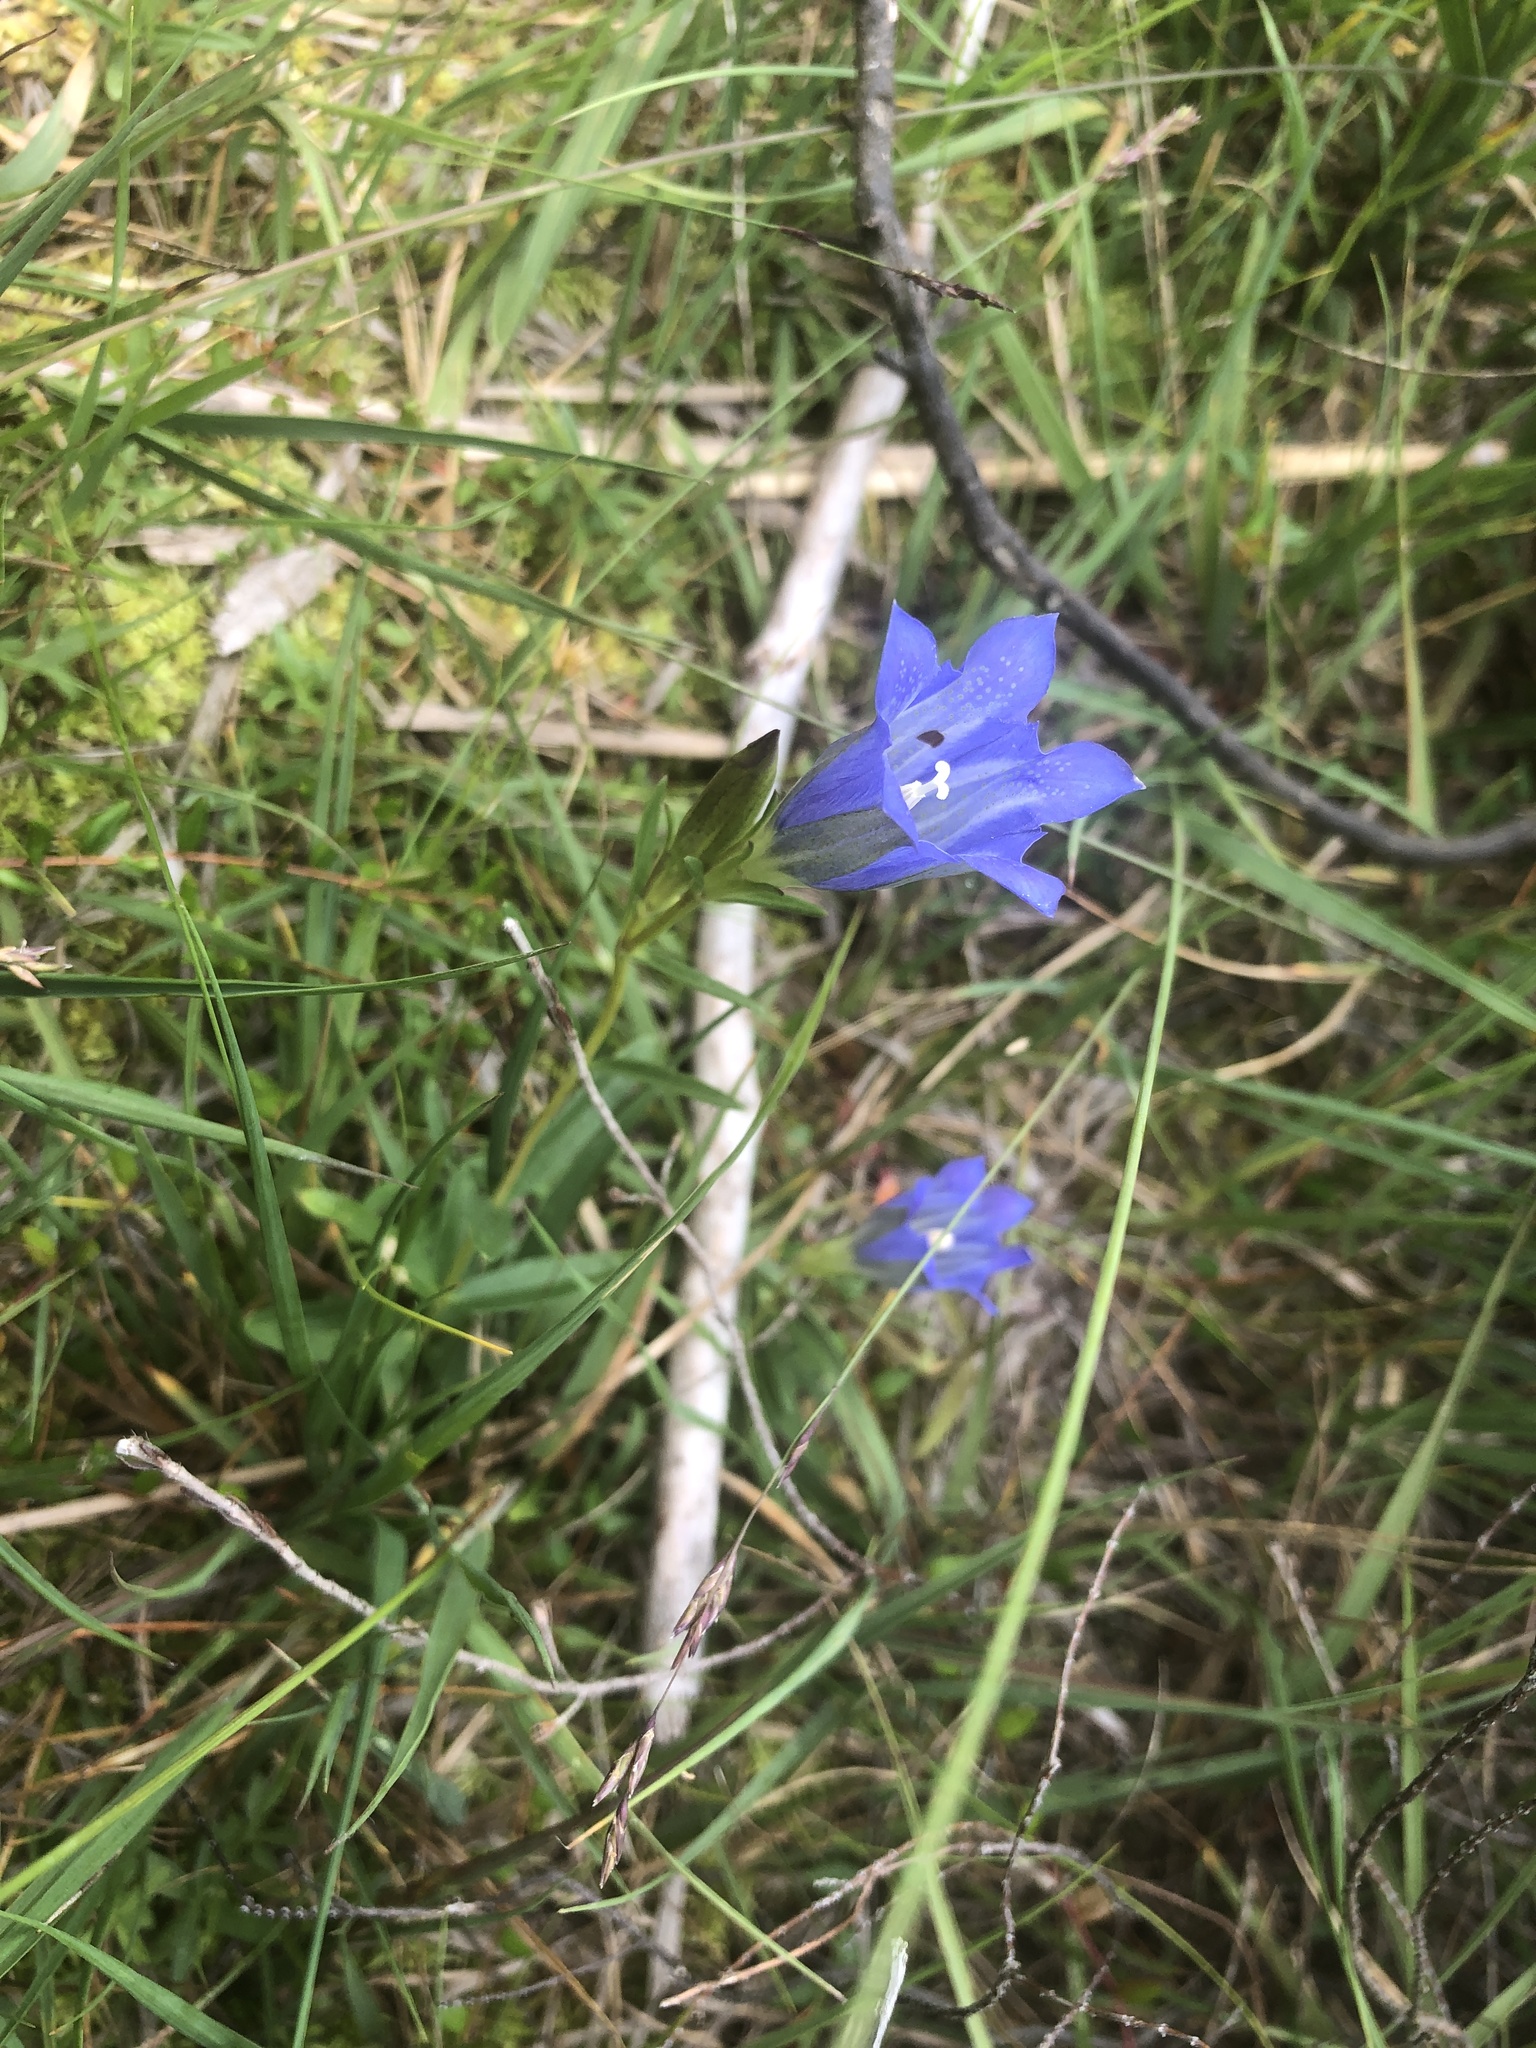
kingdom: Plantae
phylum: Tracheophyta
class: Magnoliopsida
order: Gentianales
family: Gentianaceae
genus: Gentiana
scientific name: Gentiana pneumonanthe
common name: Marsh gentian
